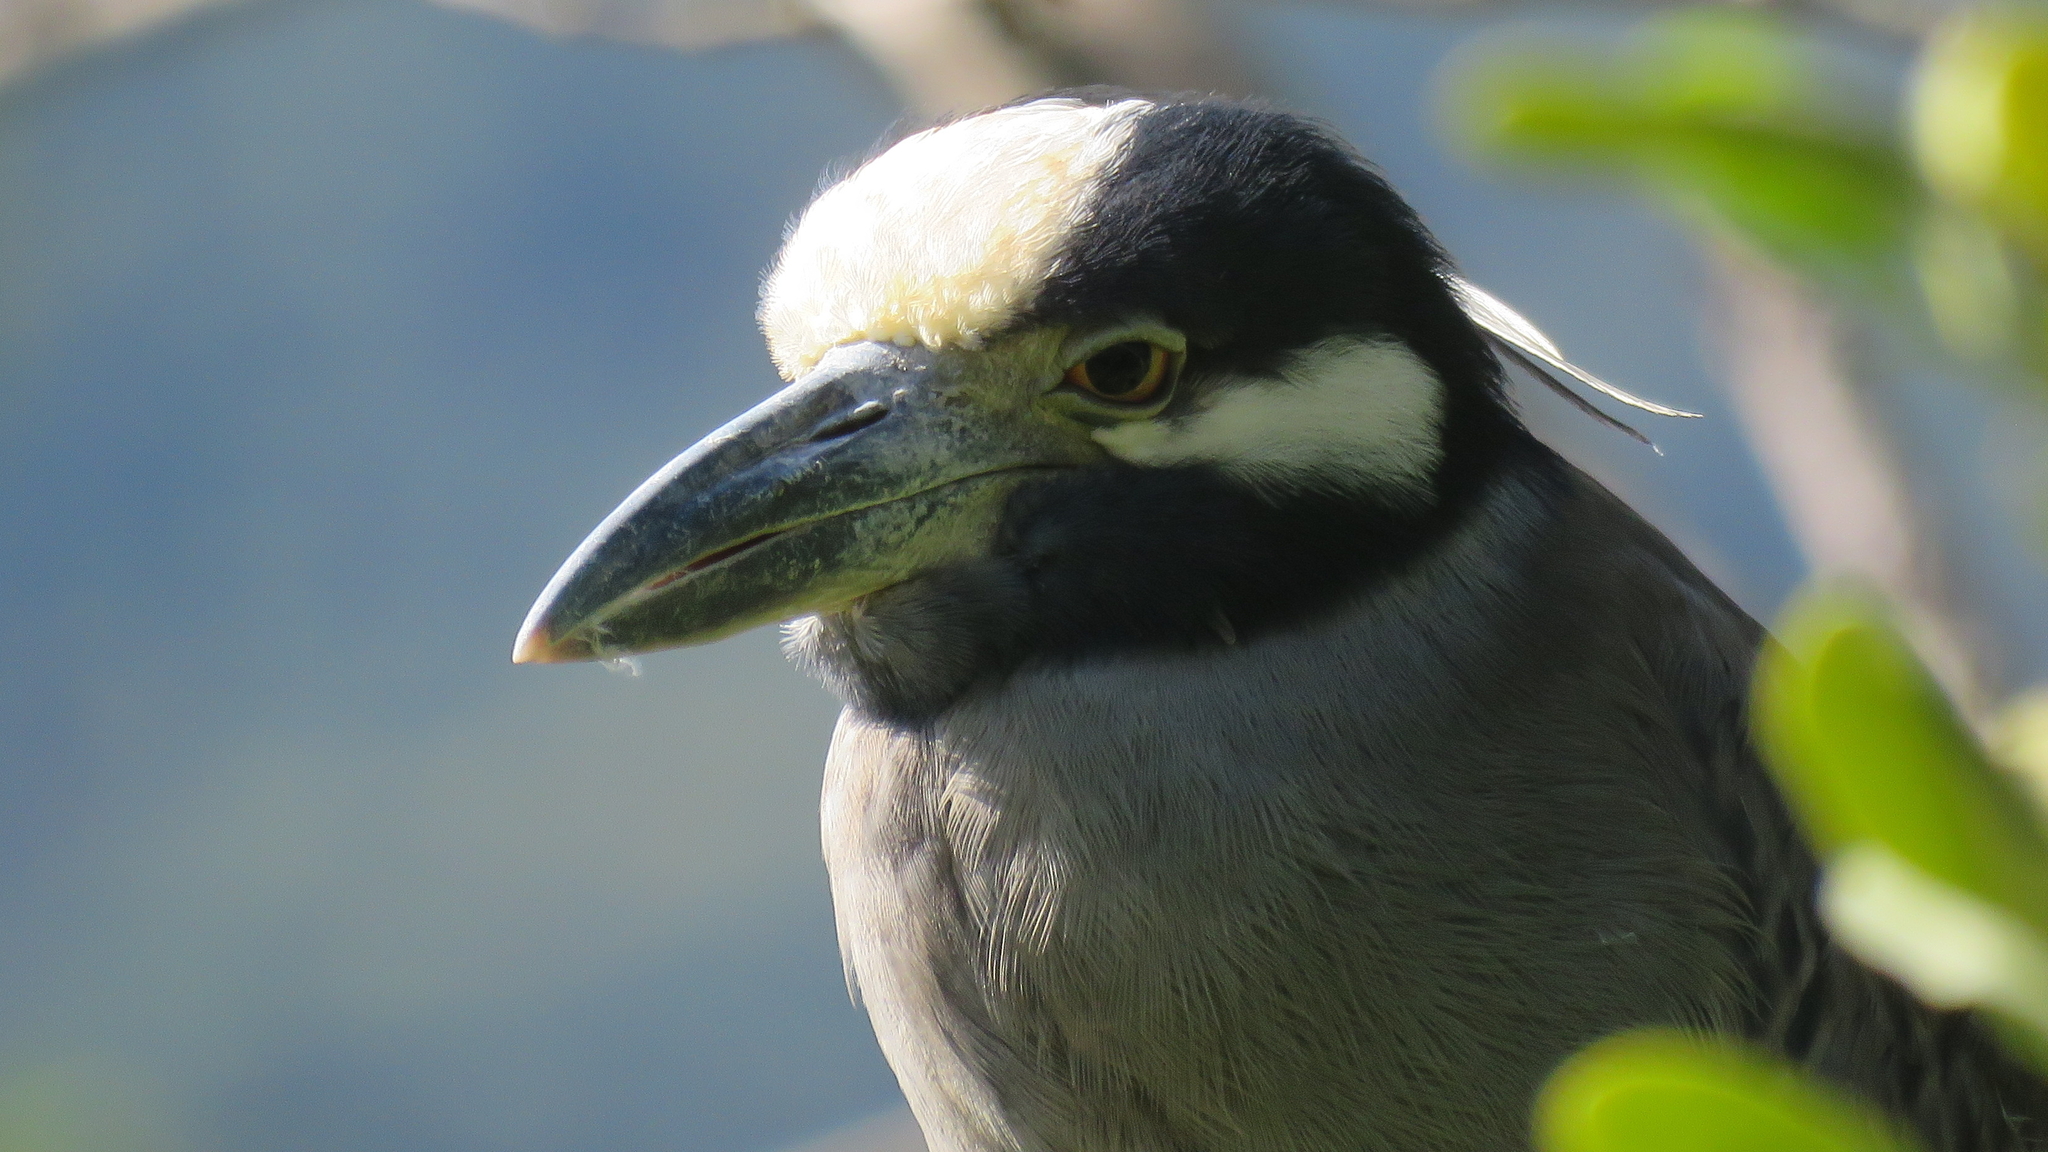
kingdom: Animalia
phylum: Chordata
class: Aves
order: Pelecaniformes
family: Ardeidae
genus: Nyctanassa
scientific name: Nyctanassa violacea
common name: Yellow-crowned night heron
